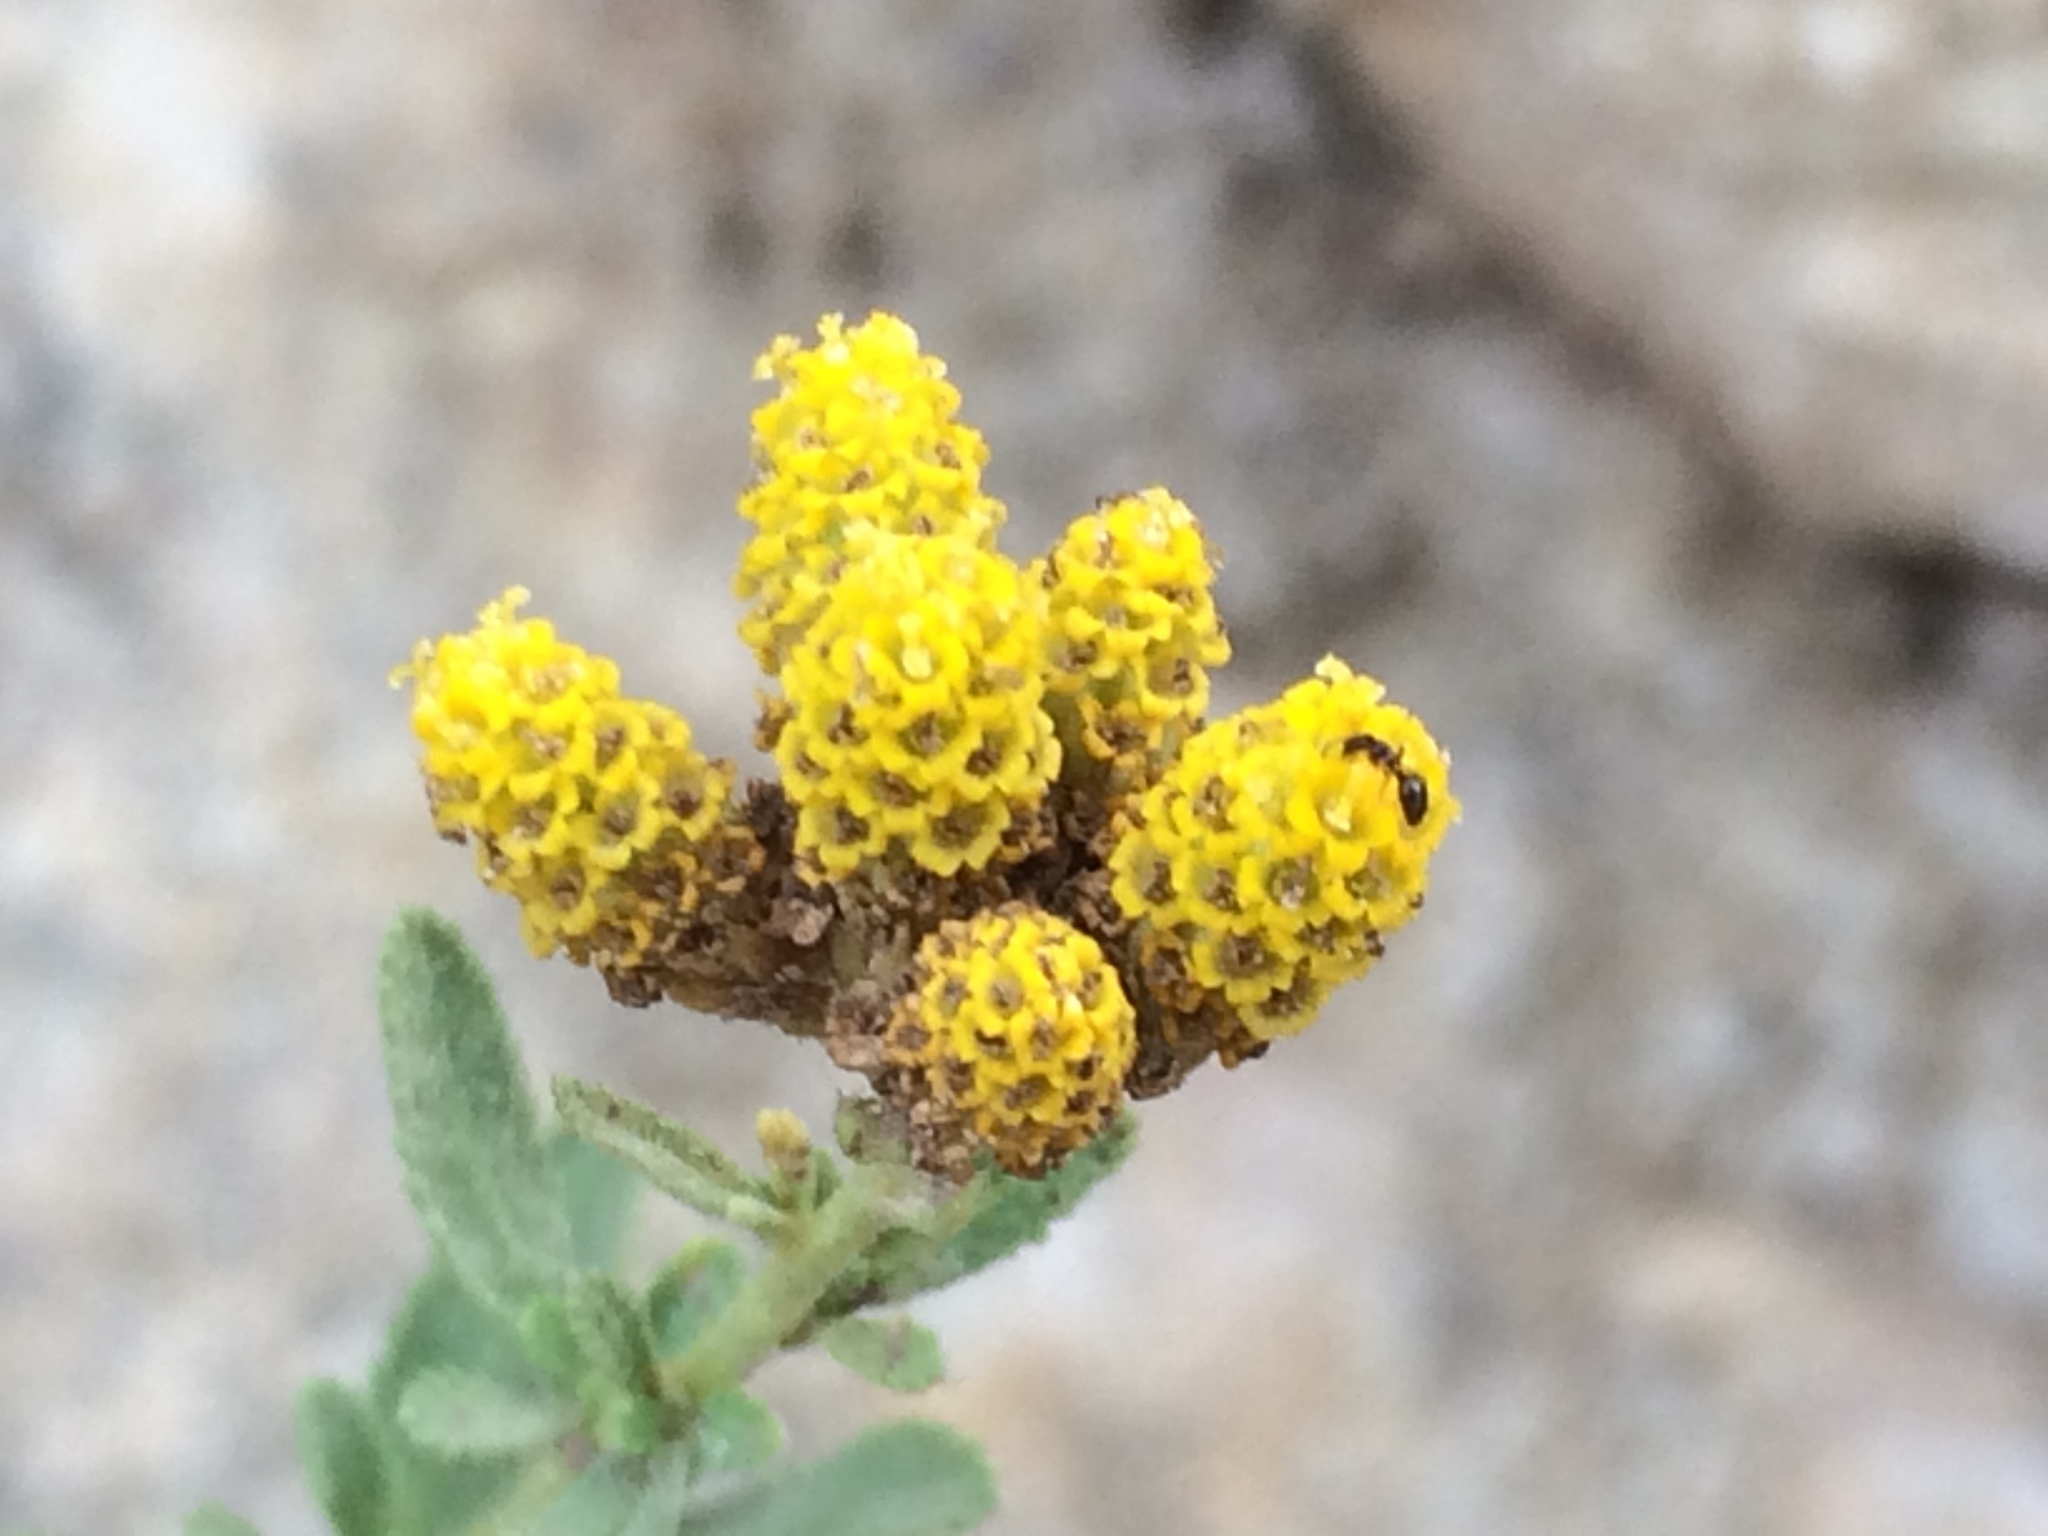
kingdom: Plantae
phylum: Tracheophyta
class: Magnoliopsida
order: Asterales
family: Asteraceae
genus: Achillea
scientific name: Achillea ageratum
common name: Sweet-nancy
